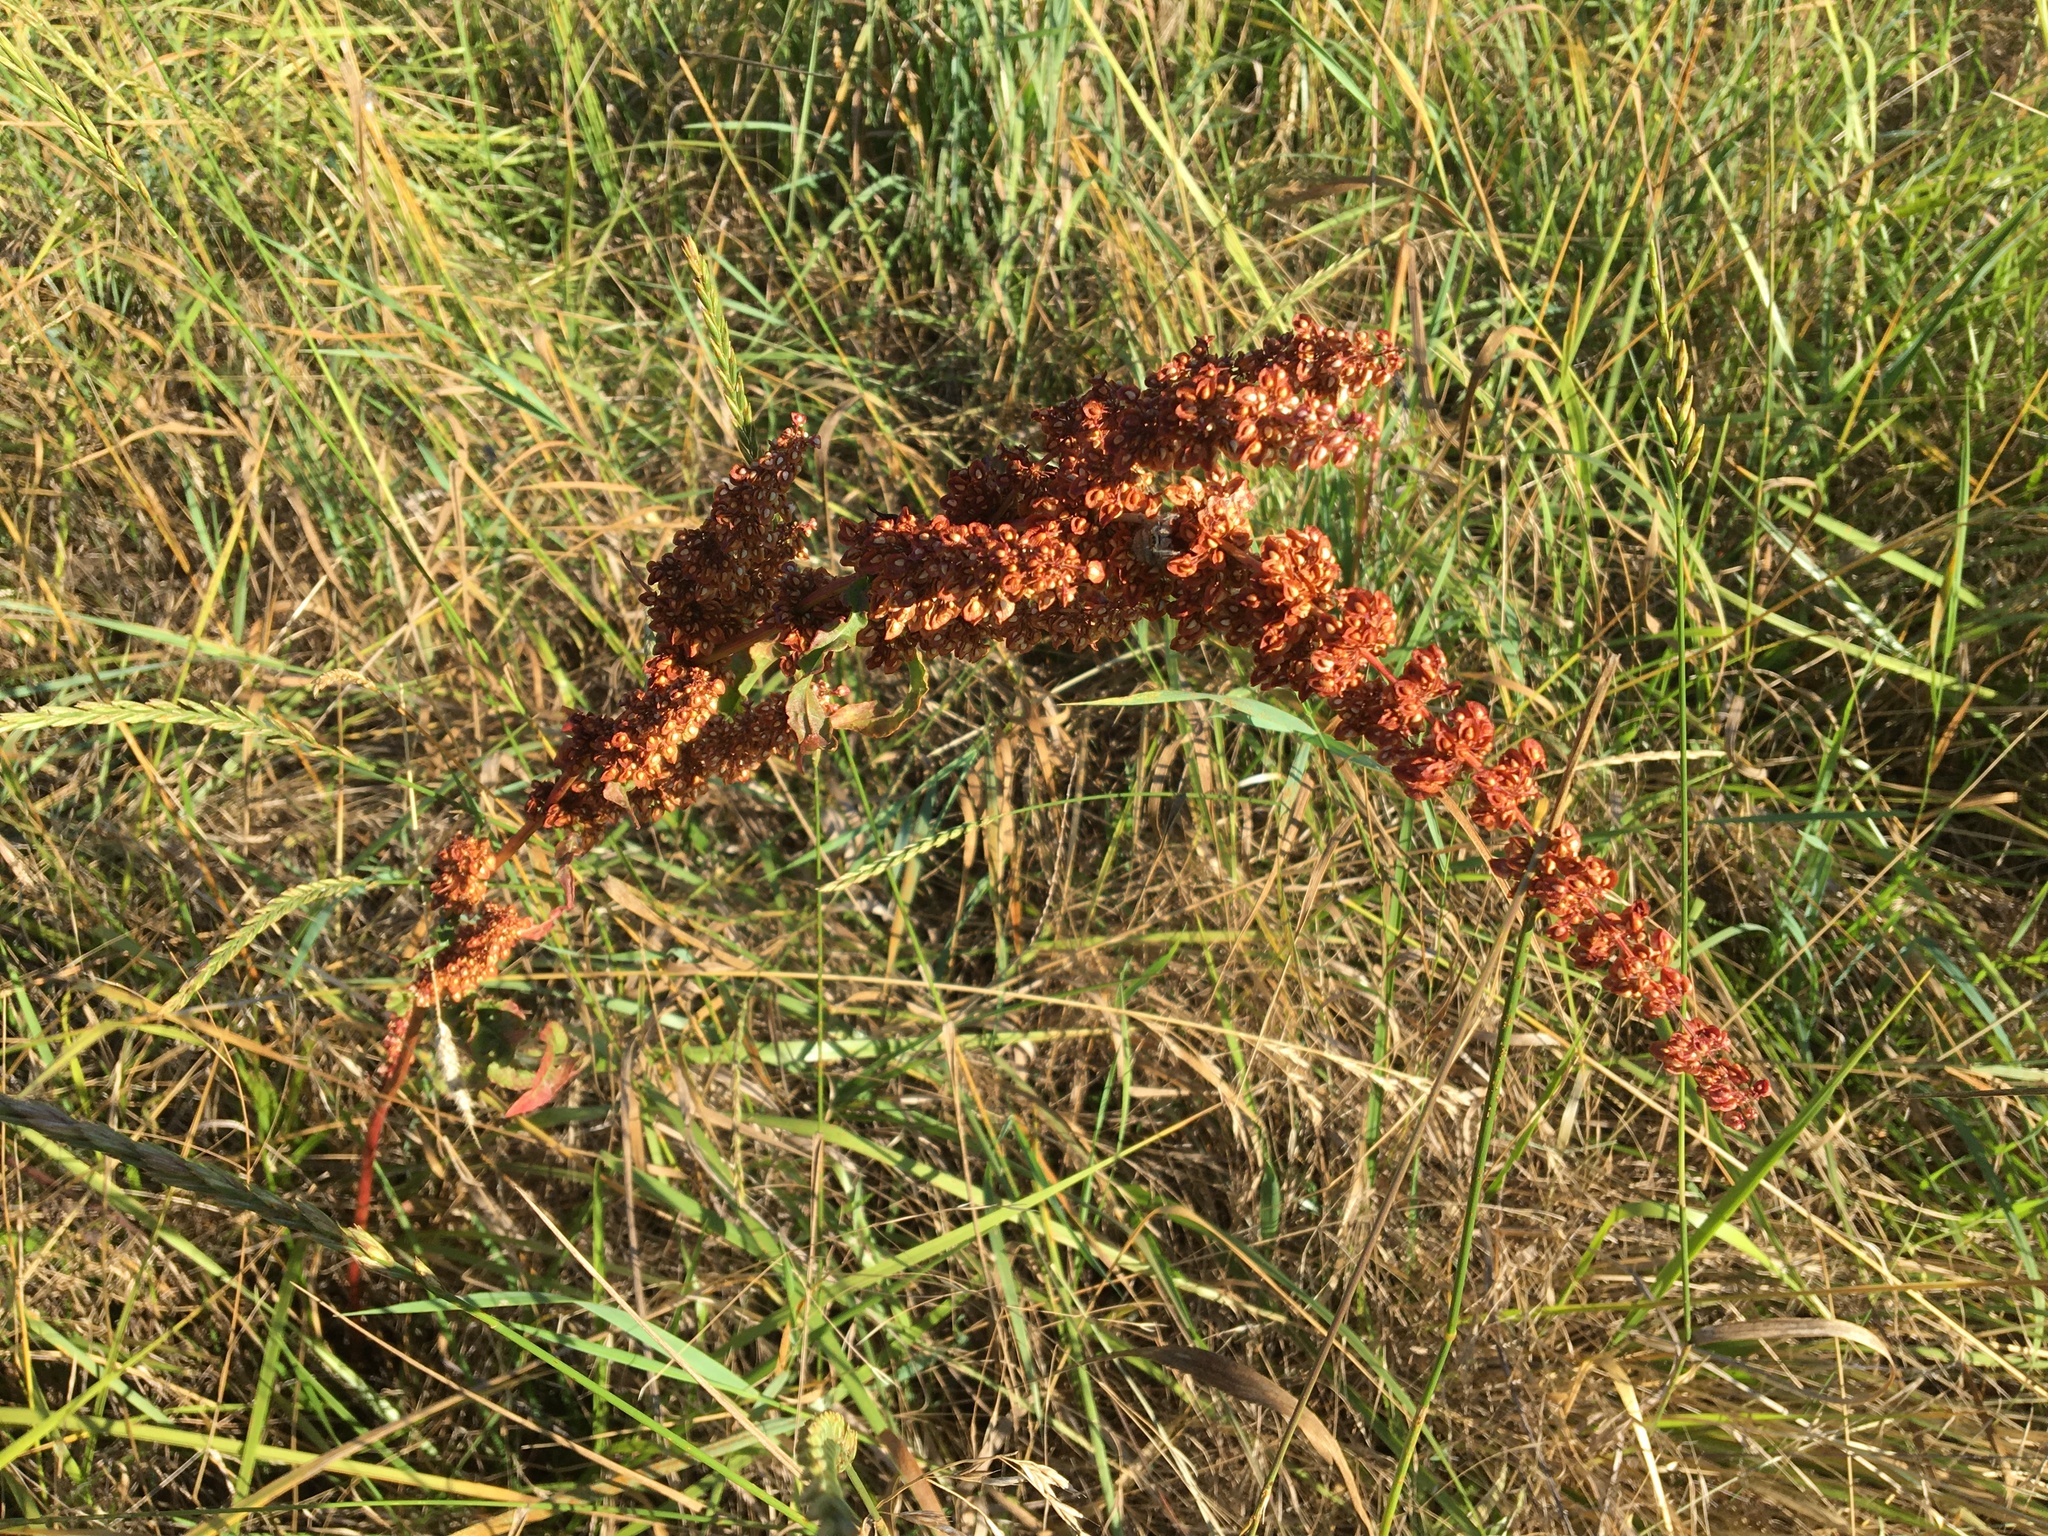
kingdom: Plantae
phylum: Tracheophyta
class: Magnoliopsida
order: Caryophyllales
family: Polygonaceae
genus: Rumex
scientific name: Rumex crispus
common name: Curled dock
